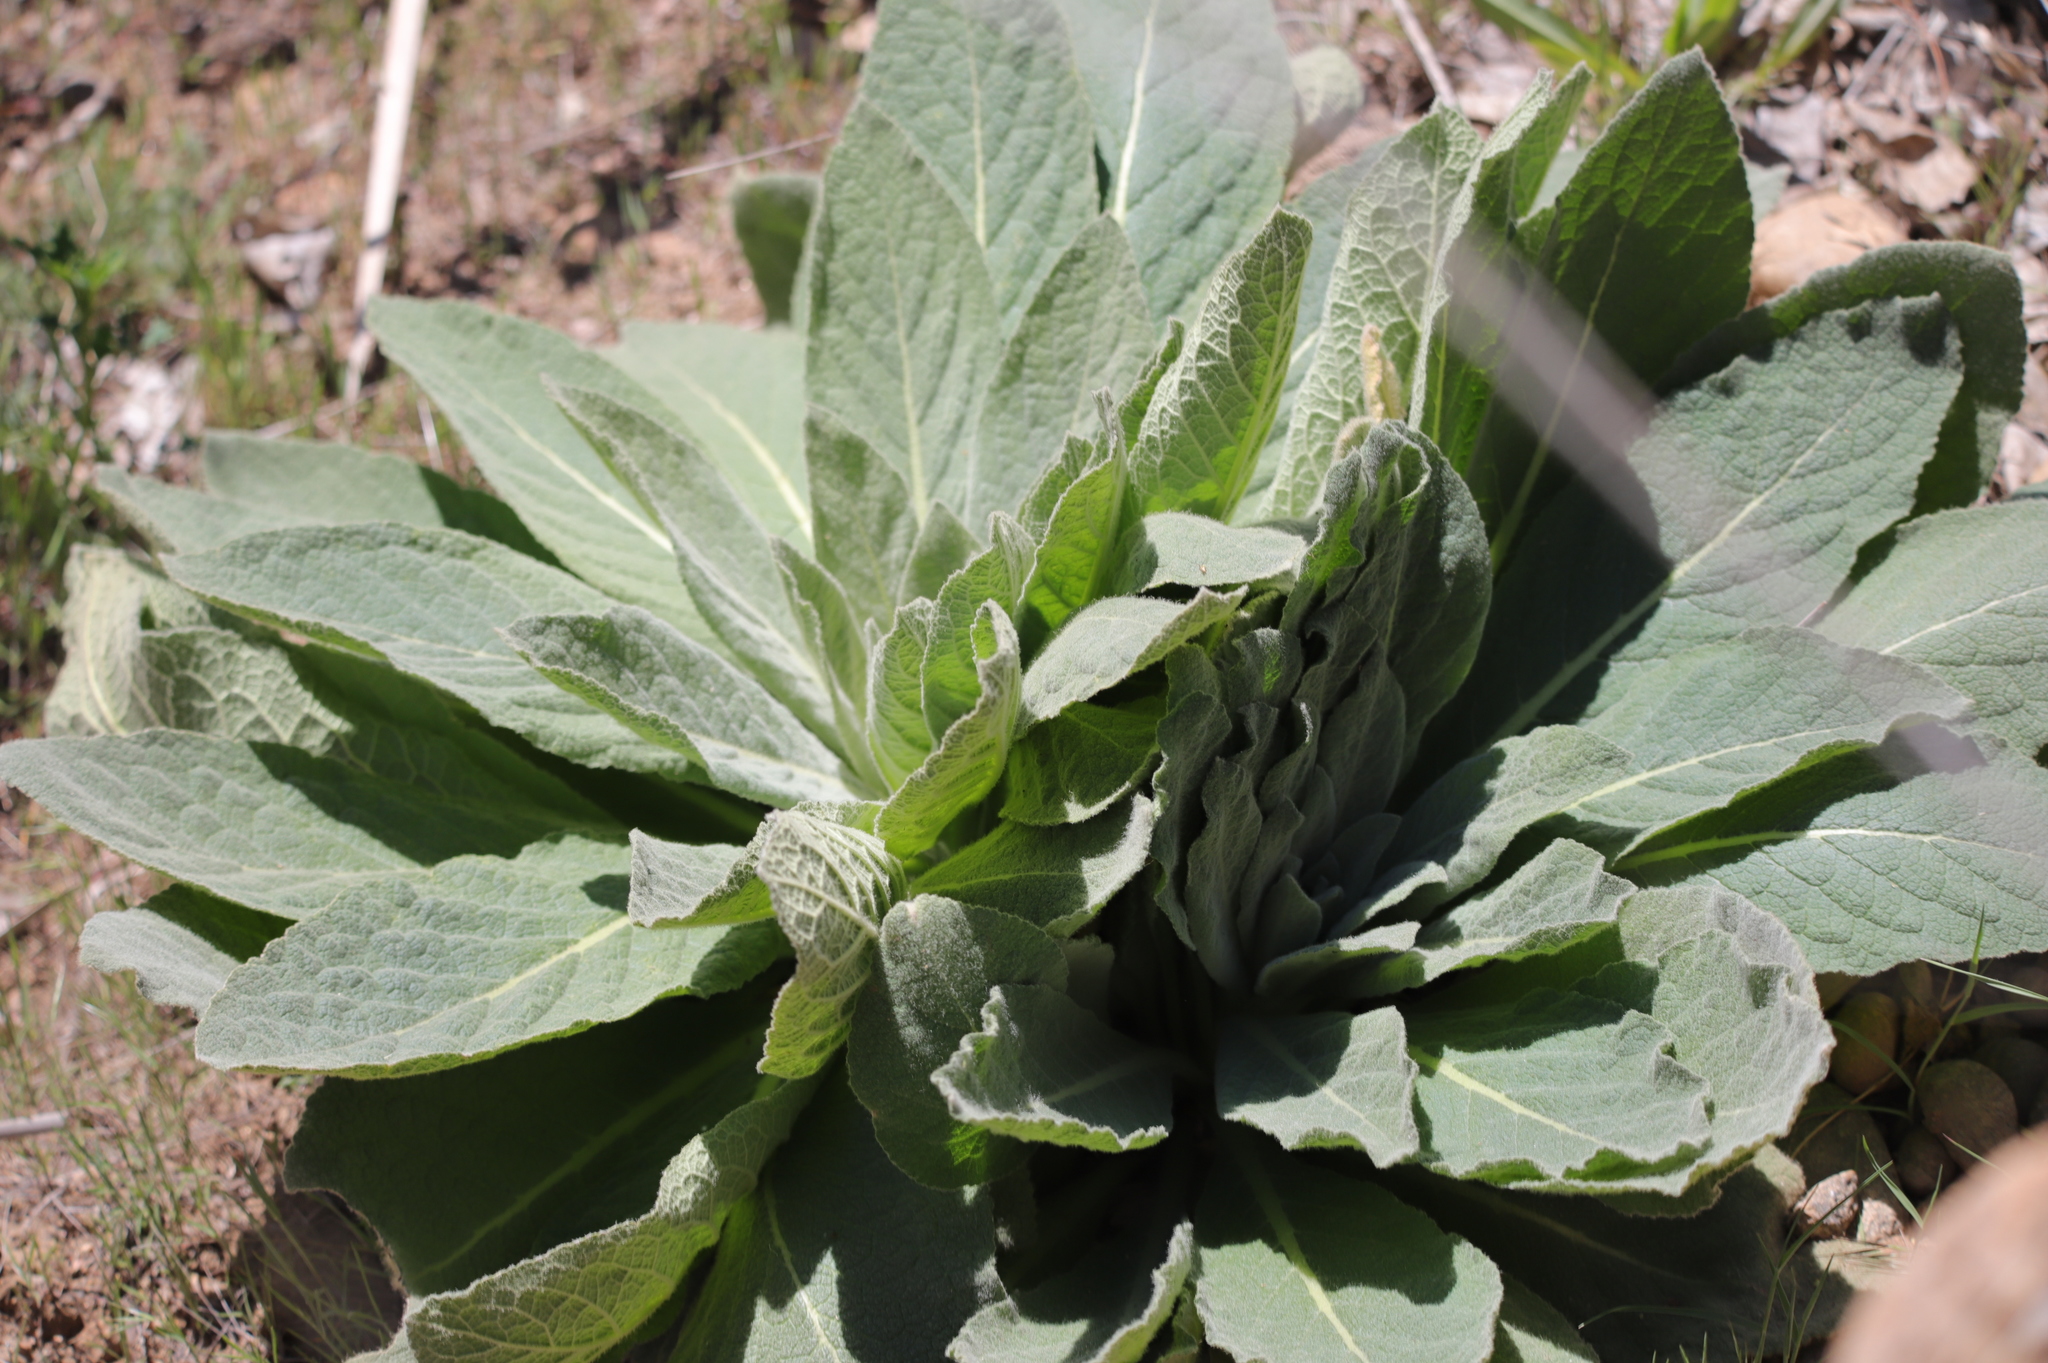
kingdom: Plantae
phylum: Tracheophyta
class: Magnoliopsida
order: Lamiales
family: Scrophulariaceae
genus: Verbascum
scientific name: Verbascum thapsus
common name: Common mullein
